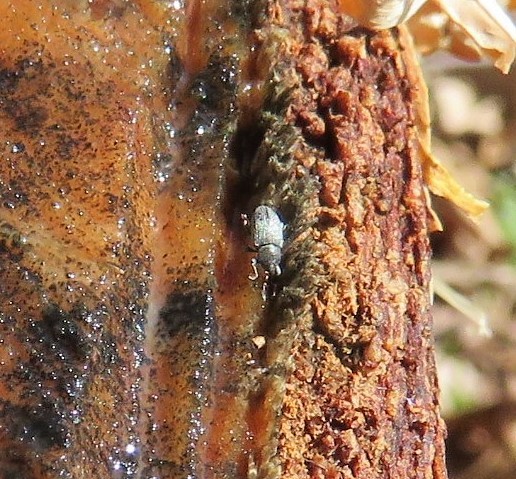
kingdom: Animalia
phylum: Arthropoda
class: Insecta
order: Coleoptera
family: Curculionidae
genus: Tychius
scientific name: Tychius picirostris
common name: Clover seed weevil
